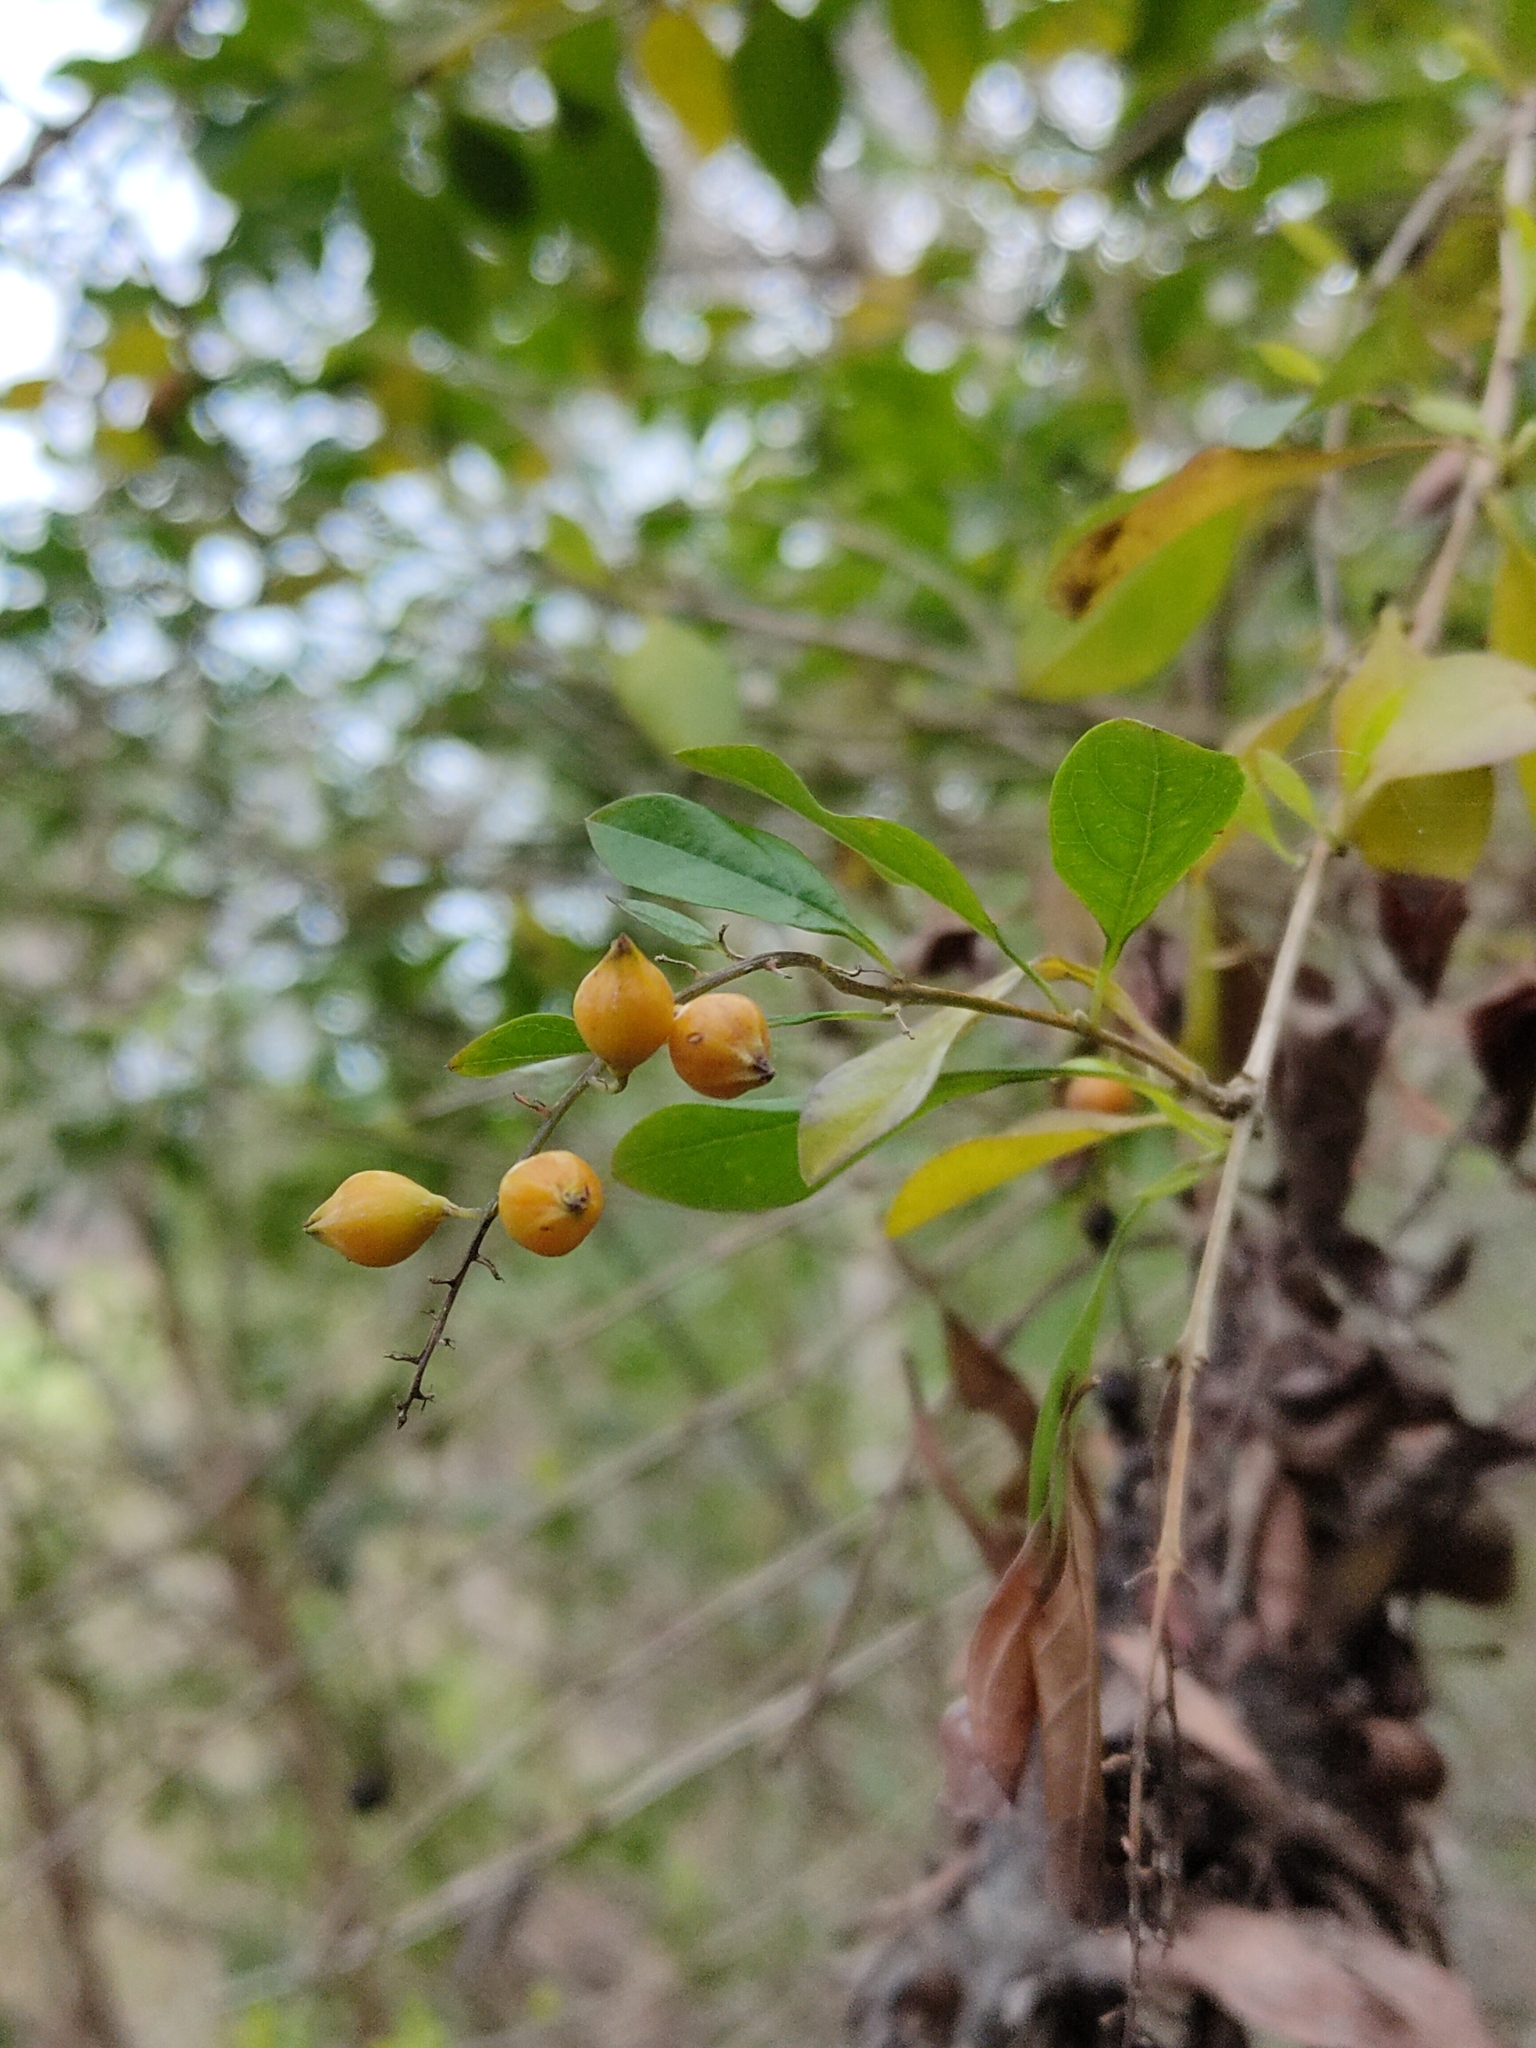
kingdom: Plantae
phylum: Tracheophyta
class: Magnoliopsida
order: Lamiales
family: Verbenaceae
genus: Duranta
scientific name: Duranta erecta
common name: Golden dewdrops
